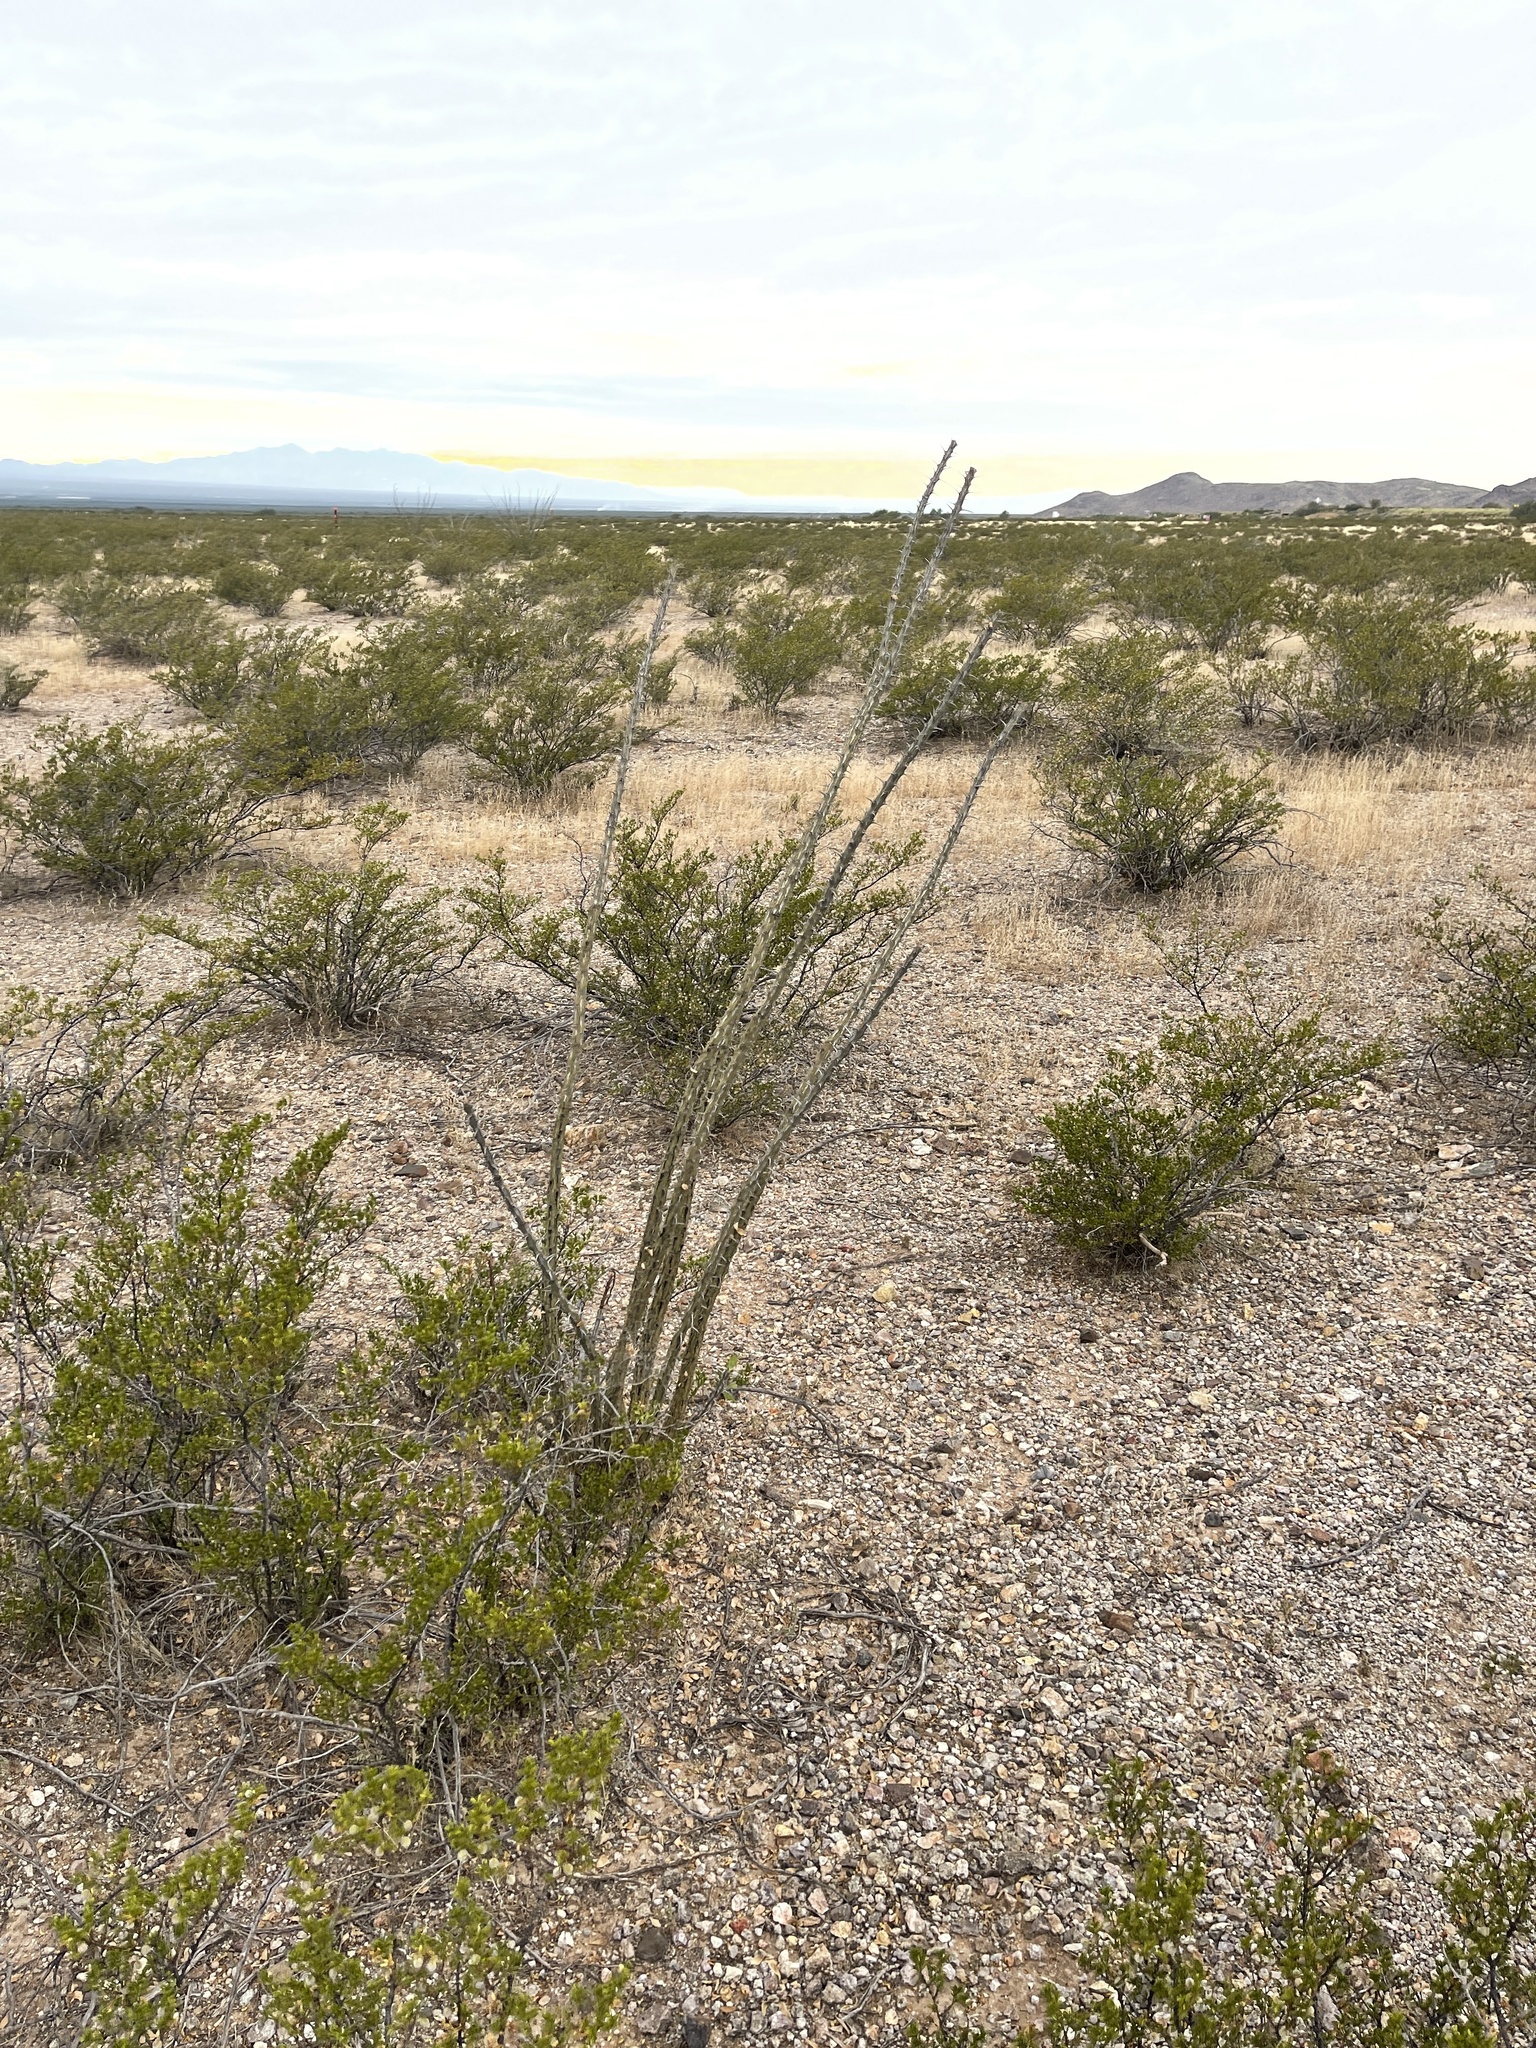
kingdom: Plantae
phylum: Tracheophyta
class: Magnoliopsida
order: Ericales
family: Fouquieriaceae
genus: Fouquieria
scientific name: Fouquieria splendens
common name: Vine-cactus
